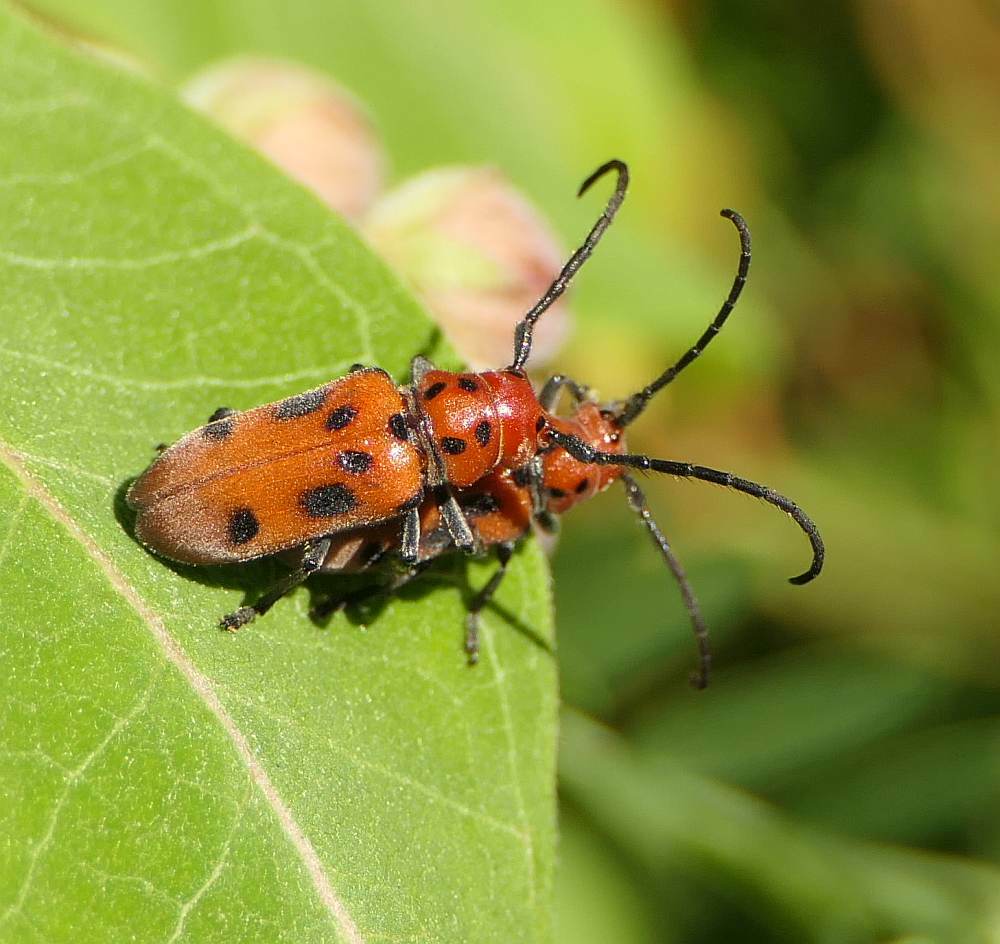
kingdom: Animalia
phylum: Arthropoda
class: Insecta
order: Coleoptera
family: Cerambycidae
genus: Tetraopes
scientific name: Tetraopes tetrophthalmus
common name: Red milkweed beetle
